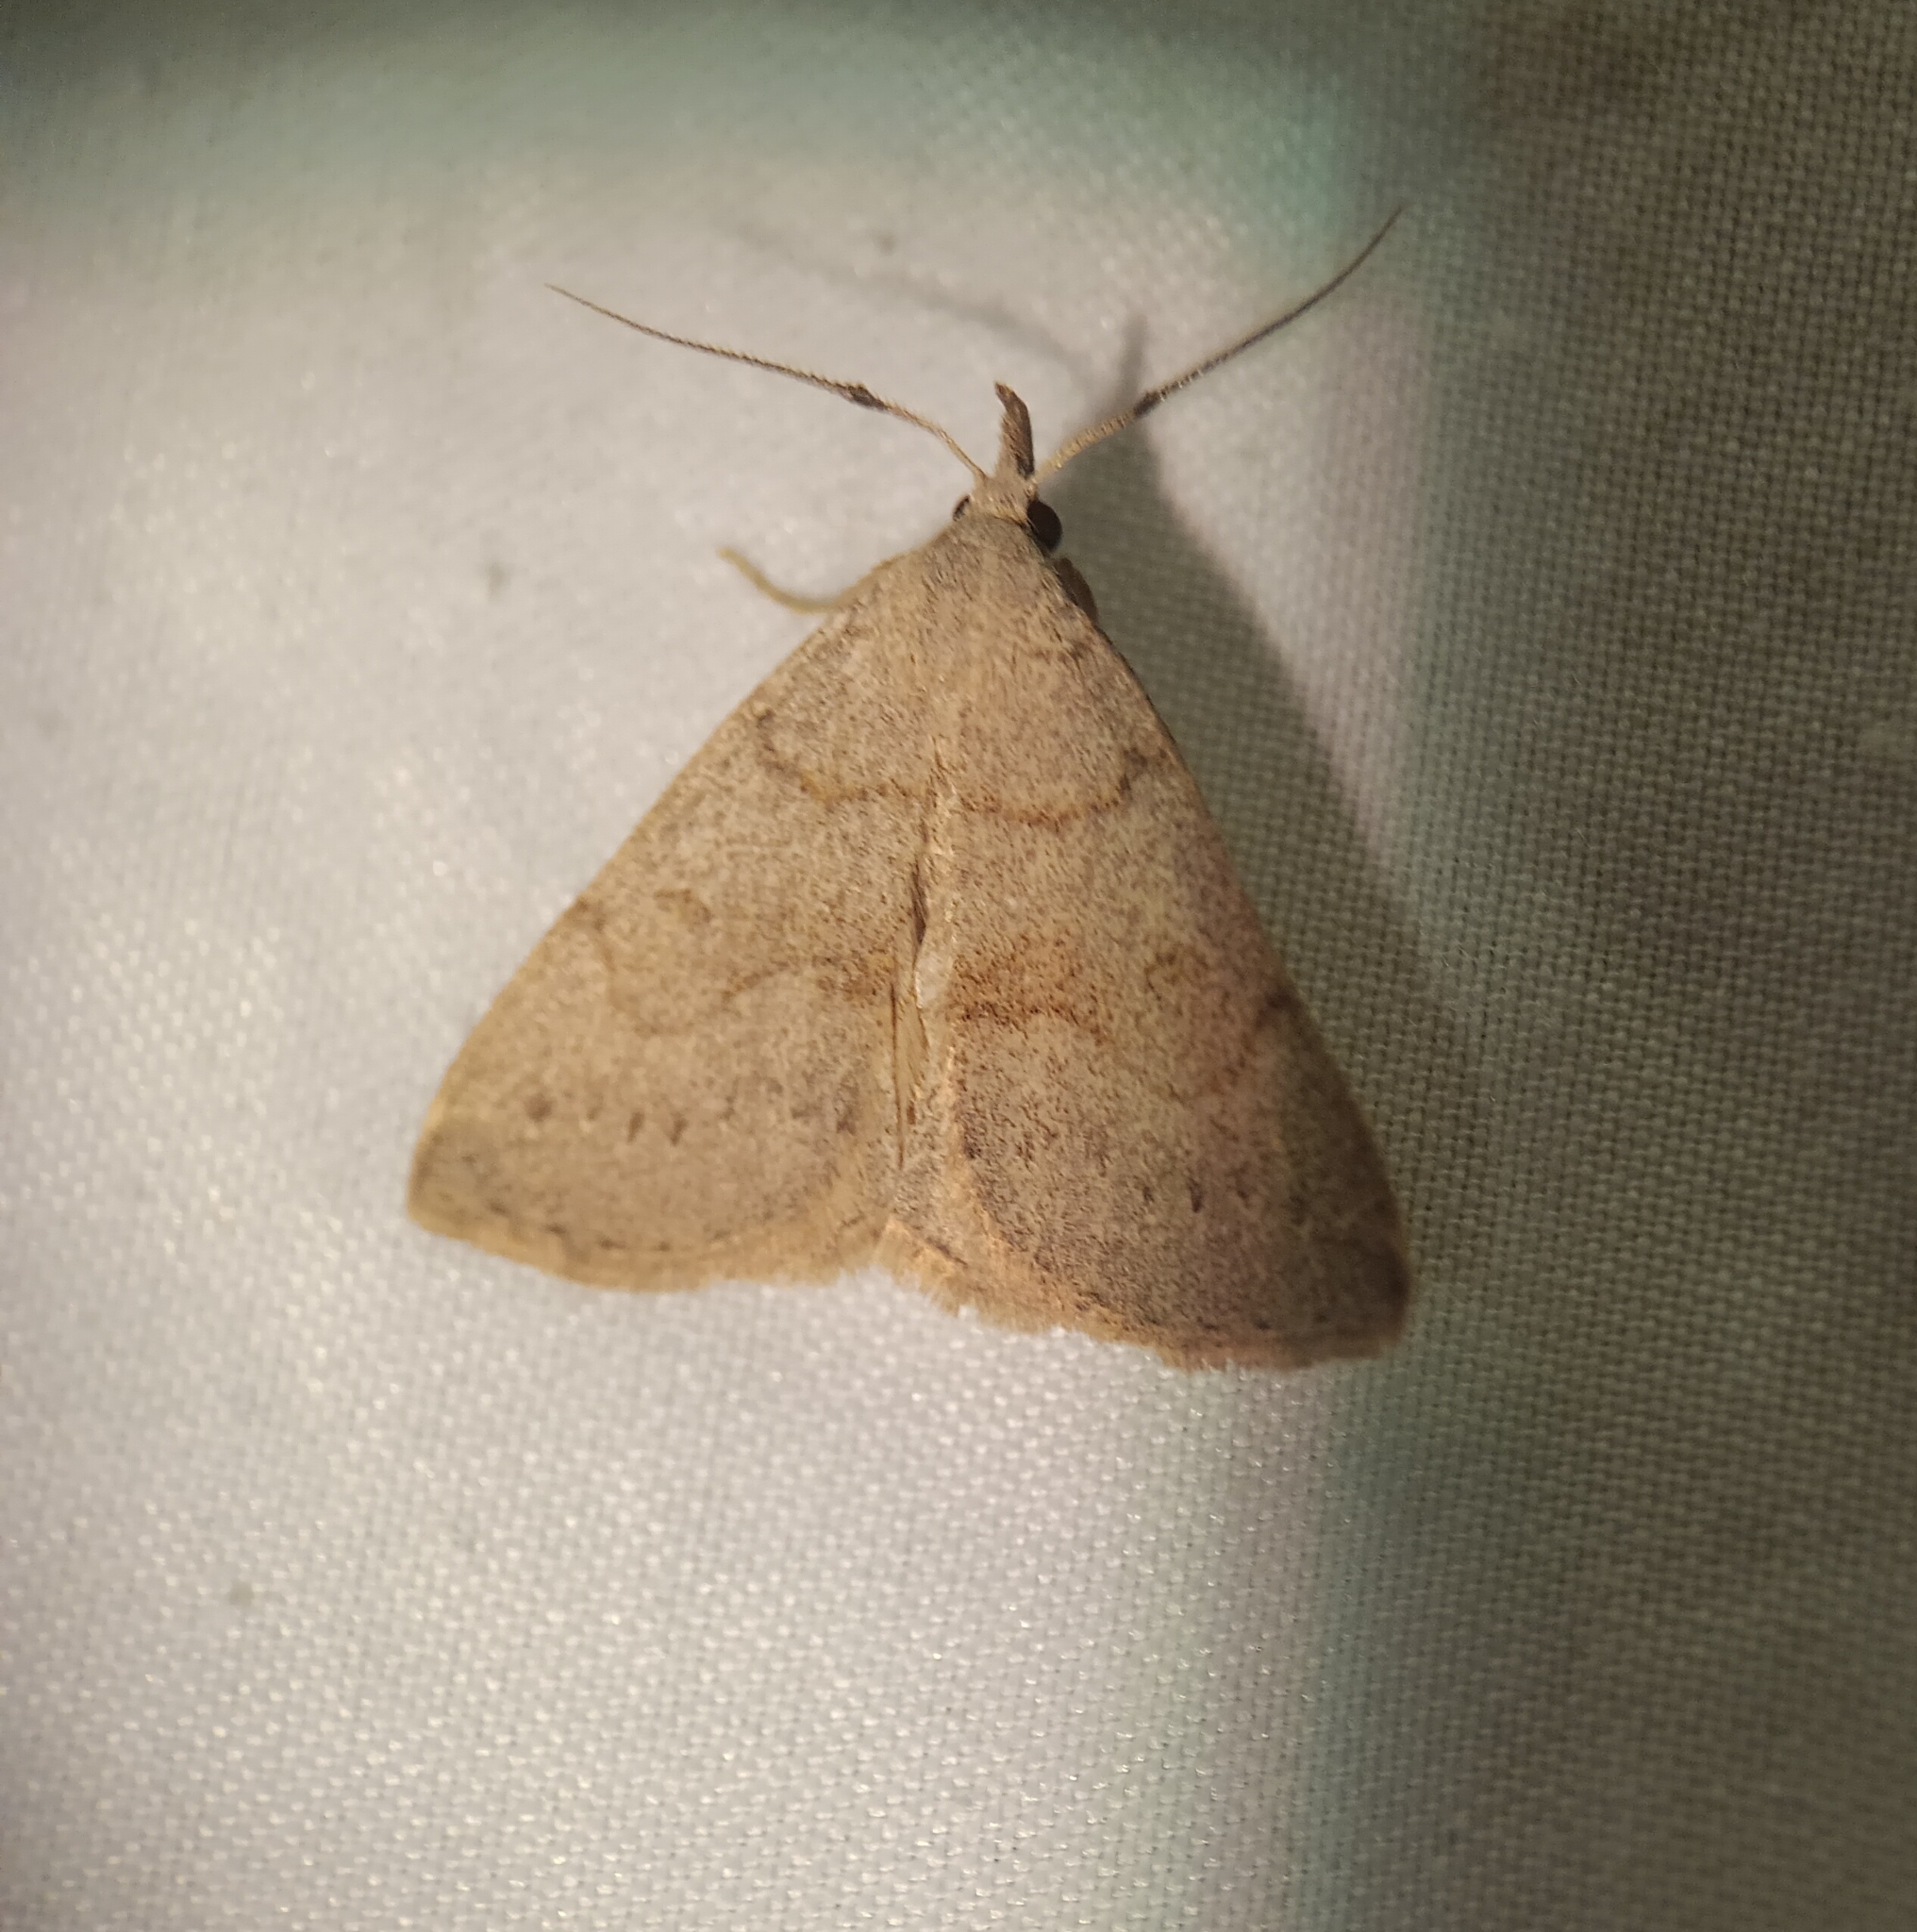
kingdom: Animalia
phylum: Arthropoda
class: Insecta
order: Lepidoptera
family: Erebidae
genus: Macrochilo
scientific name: Macrochilo morbidalis
